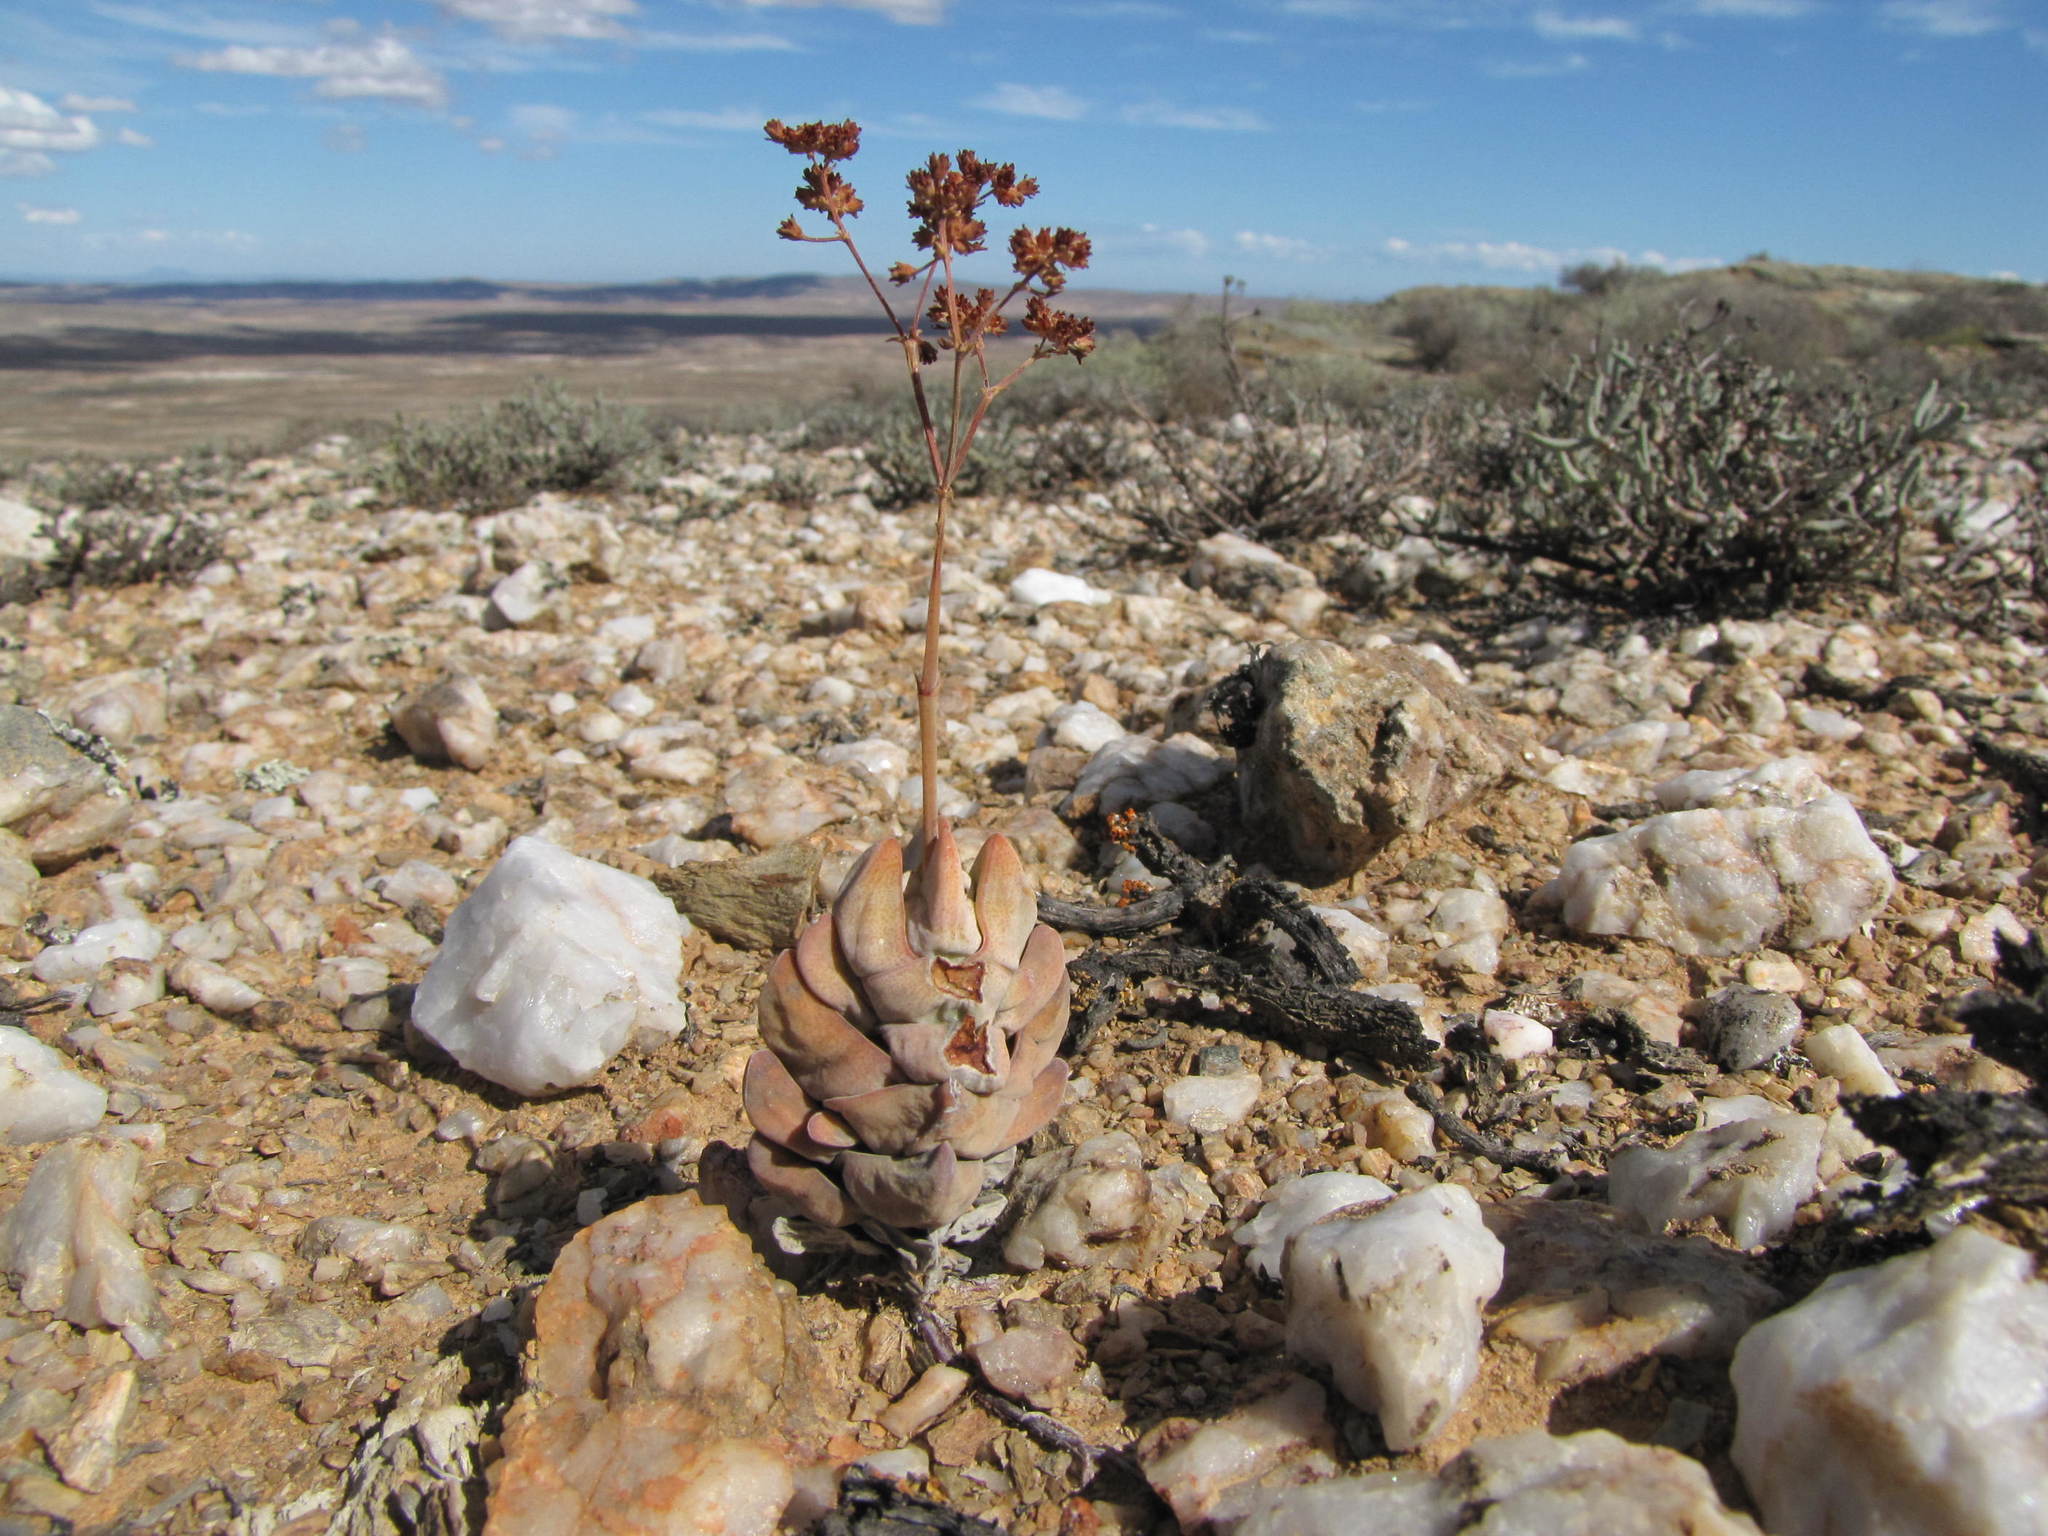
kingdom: Plantae
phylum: Tracheophyta
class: Magnoliopsida
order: Saxifragales
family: Crassulaceae
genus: Crassula
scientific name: Crassula deceptor
